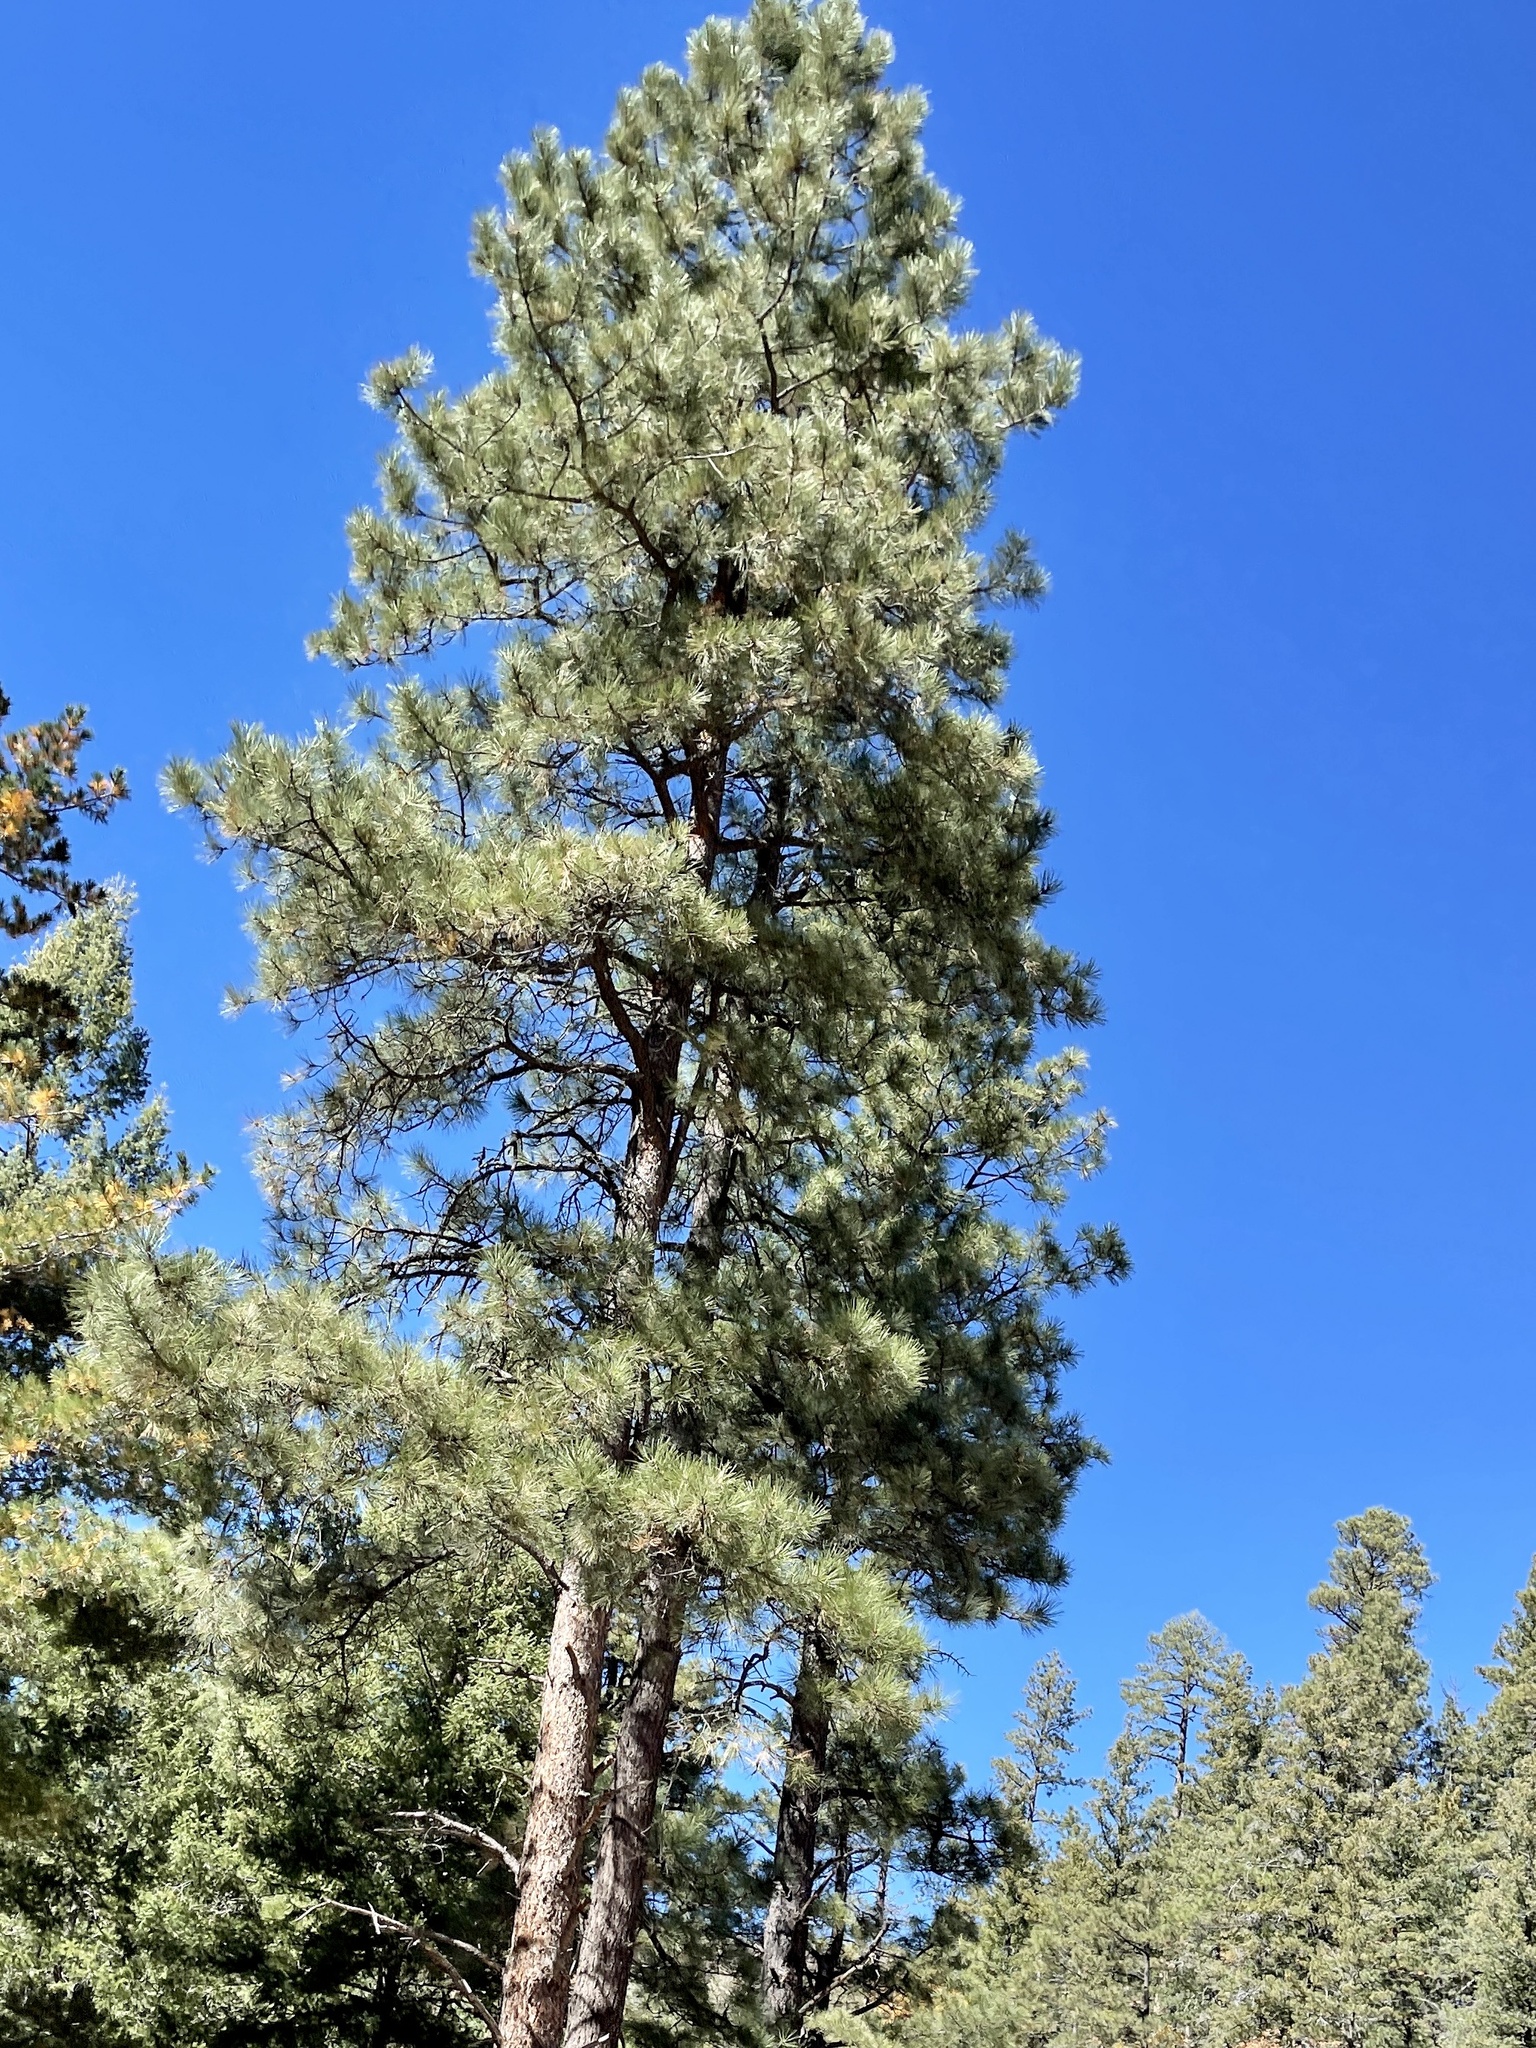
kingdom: Plantae
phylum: Tracheophyta
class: Pinopsida
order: Pinales
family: Pinaceae
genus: Pinus
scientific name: Pinus ponderosa
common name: Western yellow-pine
